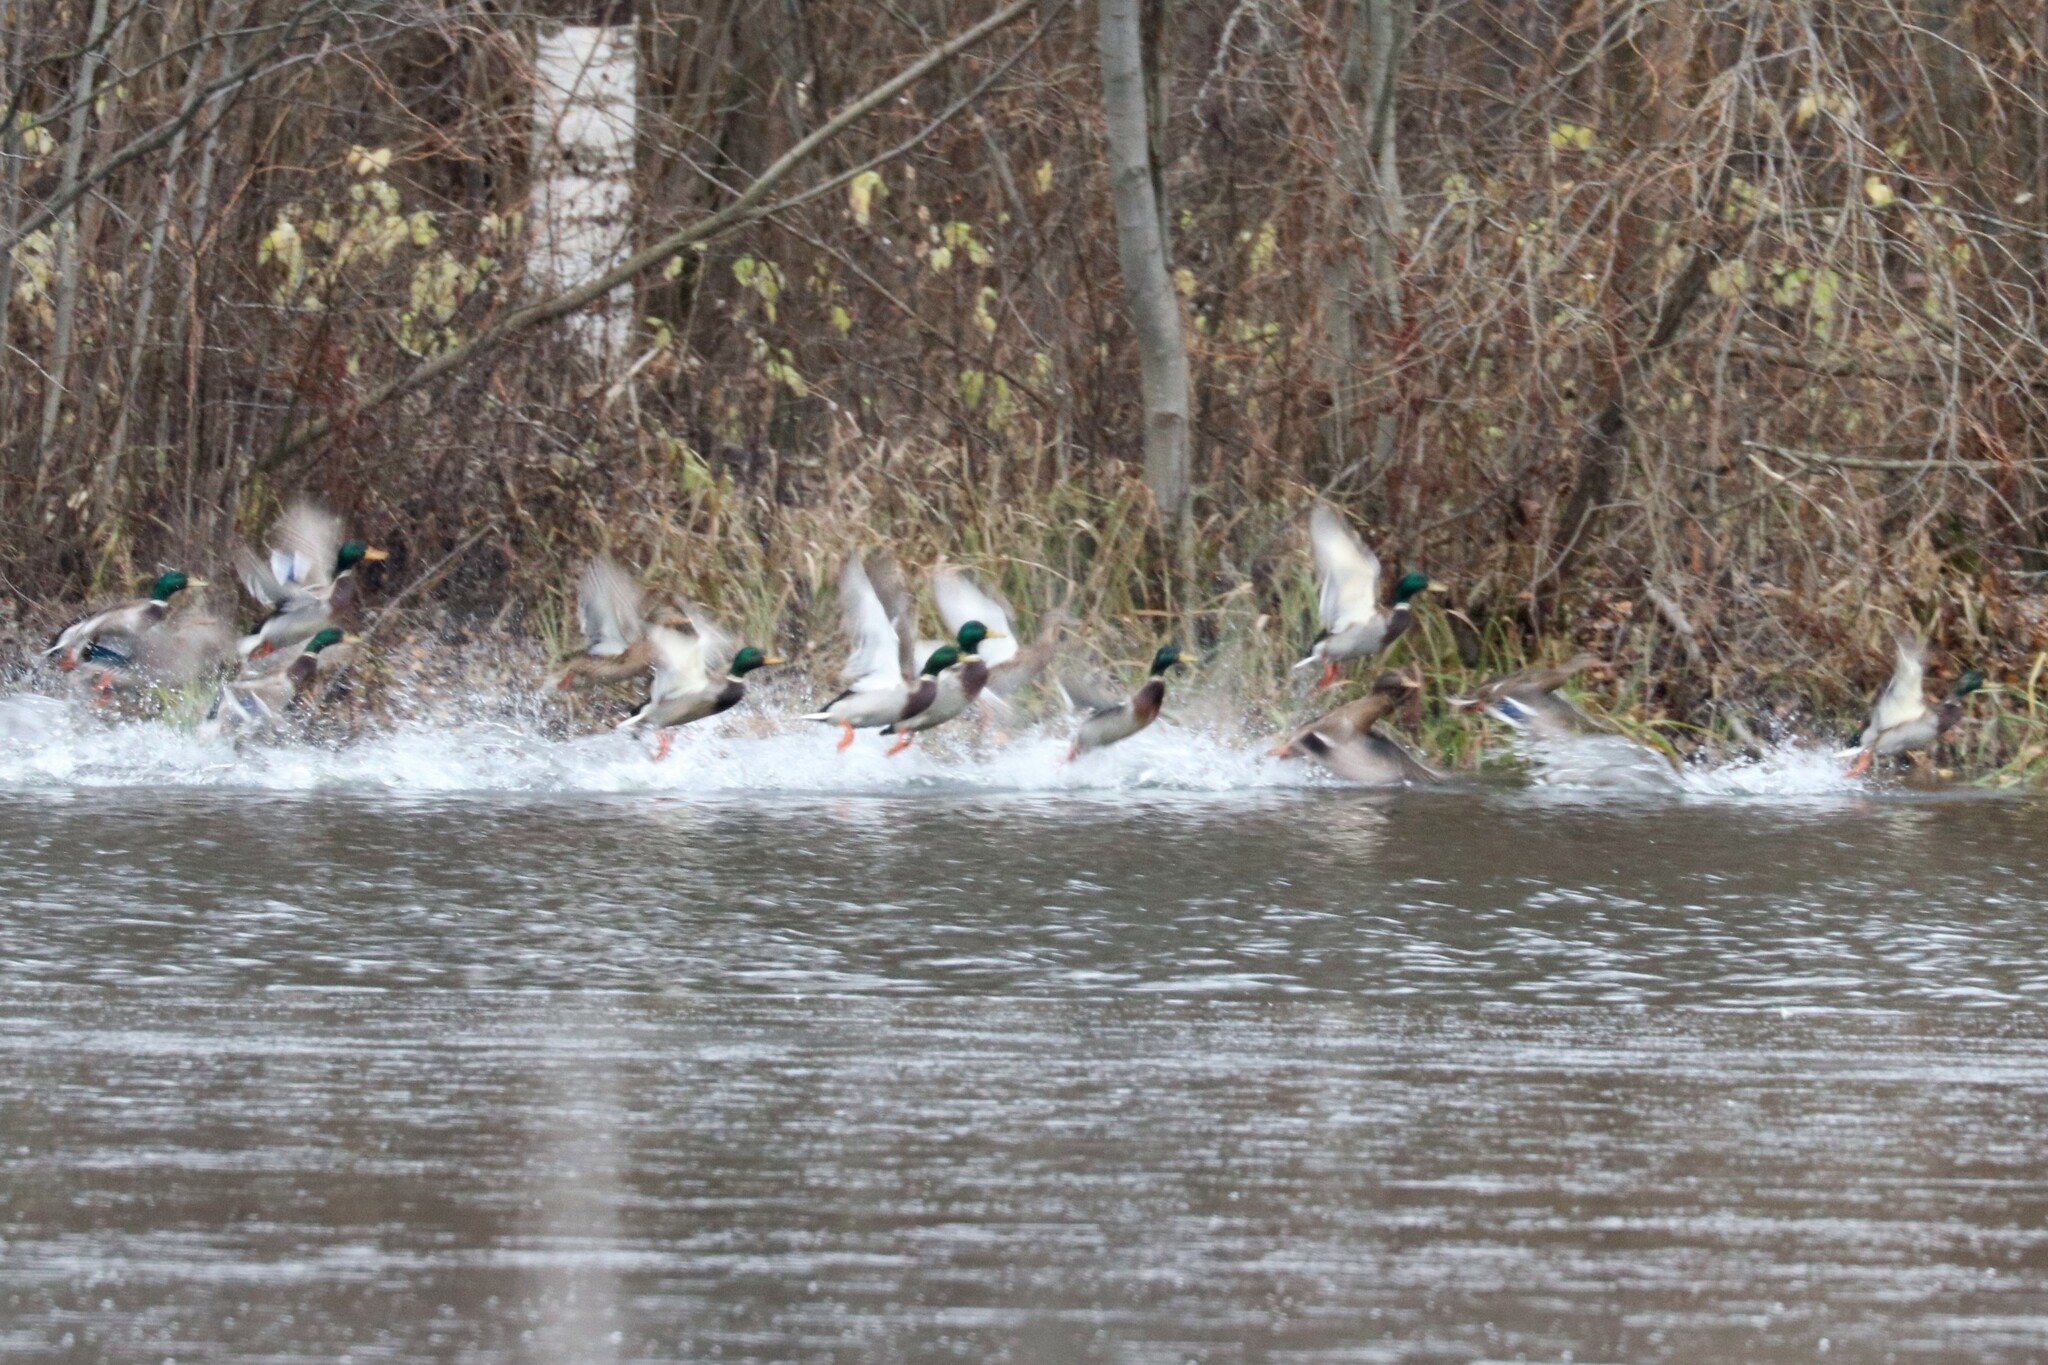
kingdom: Animalia
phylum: Chordata
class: Aves
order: Anseriformes
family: Anatidae
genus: Anas
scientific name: Anas platyrhynchos
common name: Mallard
